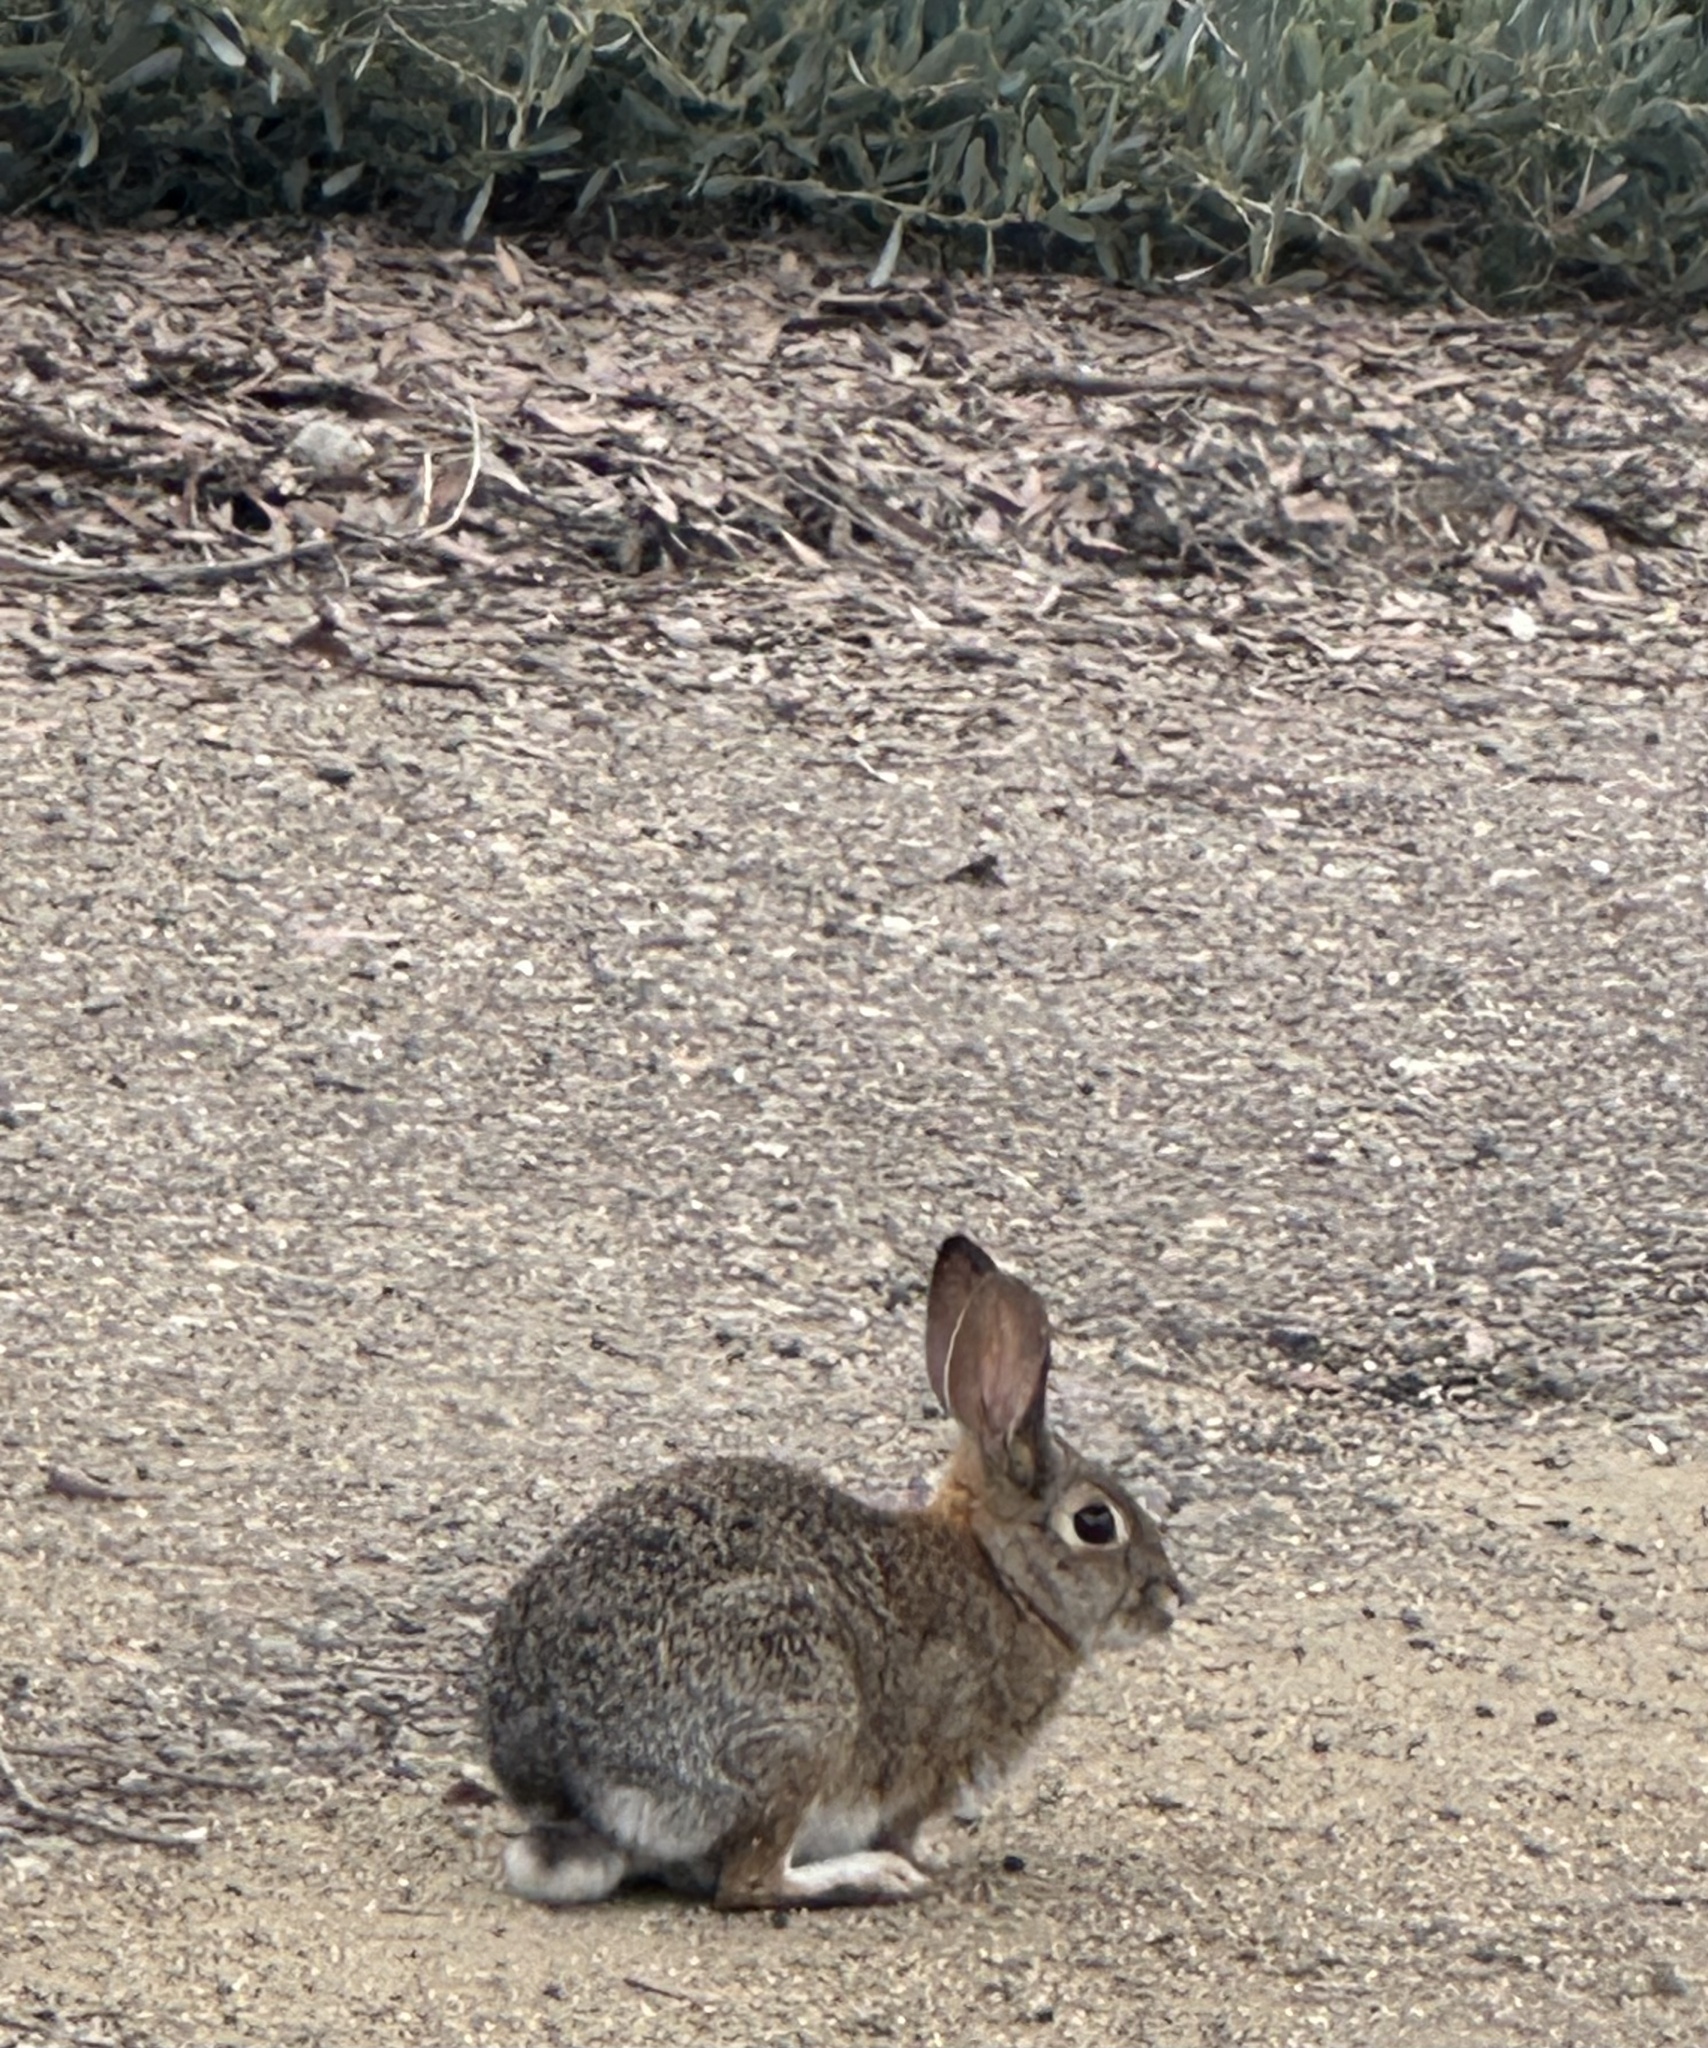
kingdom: Animalia
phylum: Chordata
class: Mammalia
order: Lagomorpha
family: Leporidae
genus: Sylvilagus
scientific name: Sylvilagus audubonii
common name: Desert cottontail
